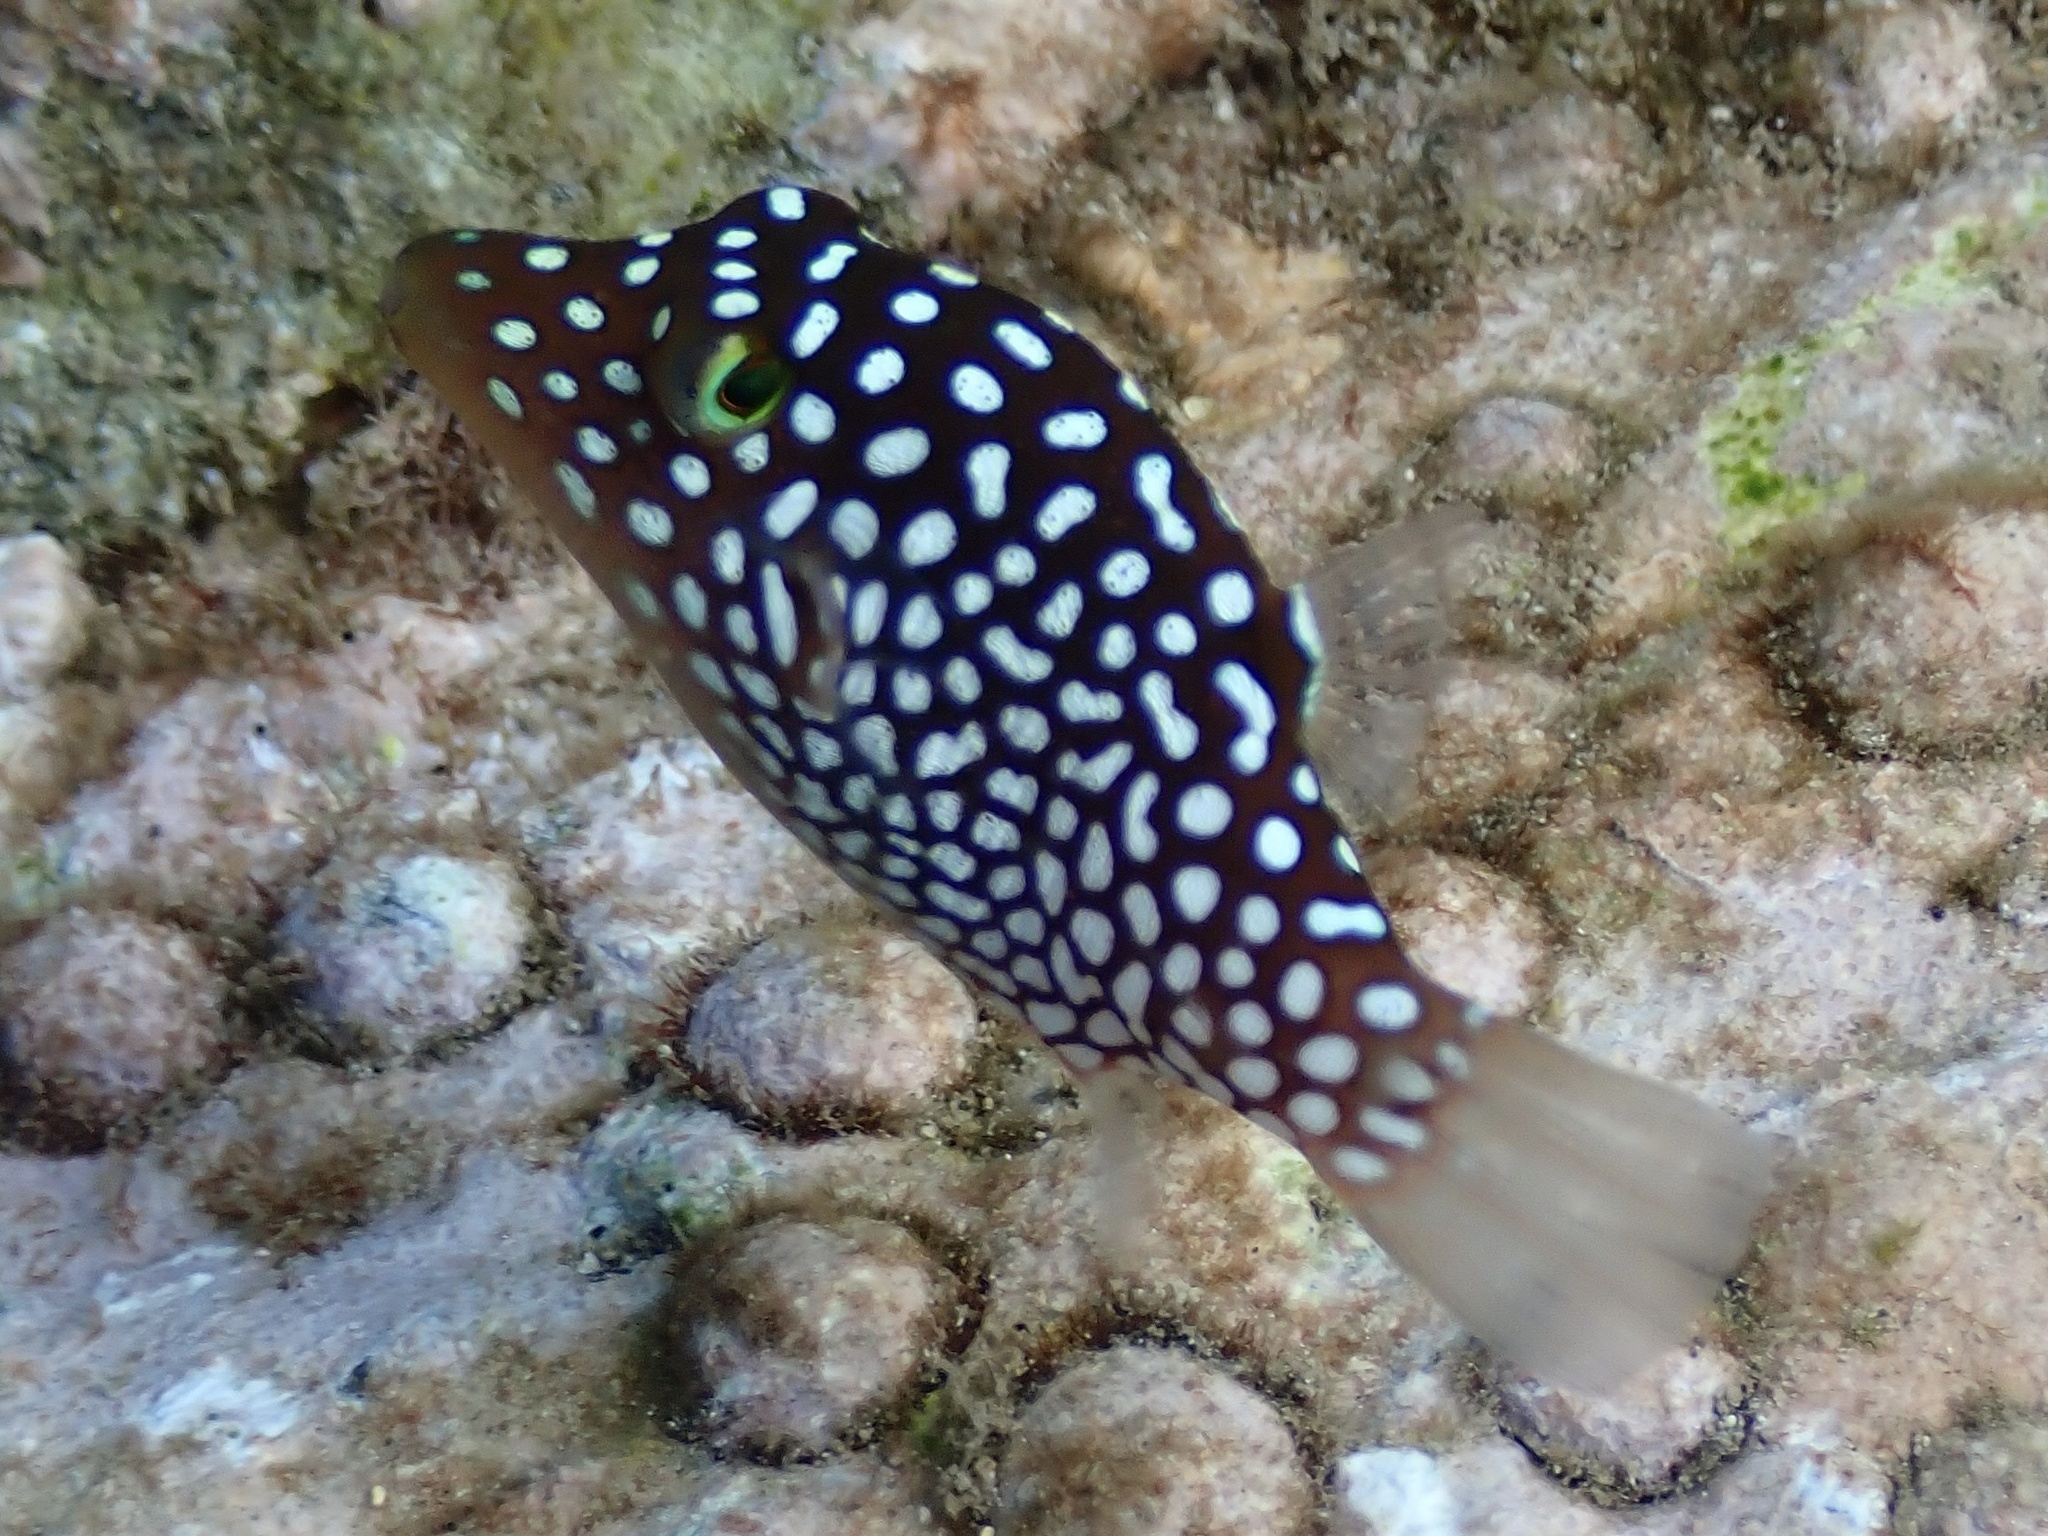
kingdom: Animalia
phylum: Chordata
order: Tetraodontiformes
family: Tetraodontidae
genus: Canthigaster
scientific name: Canthigaster jactator
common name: Hawaiian whitespotted toby
